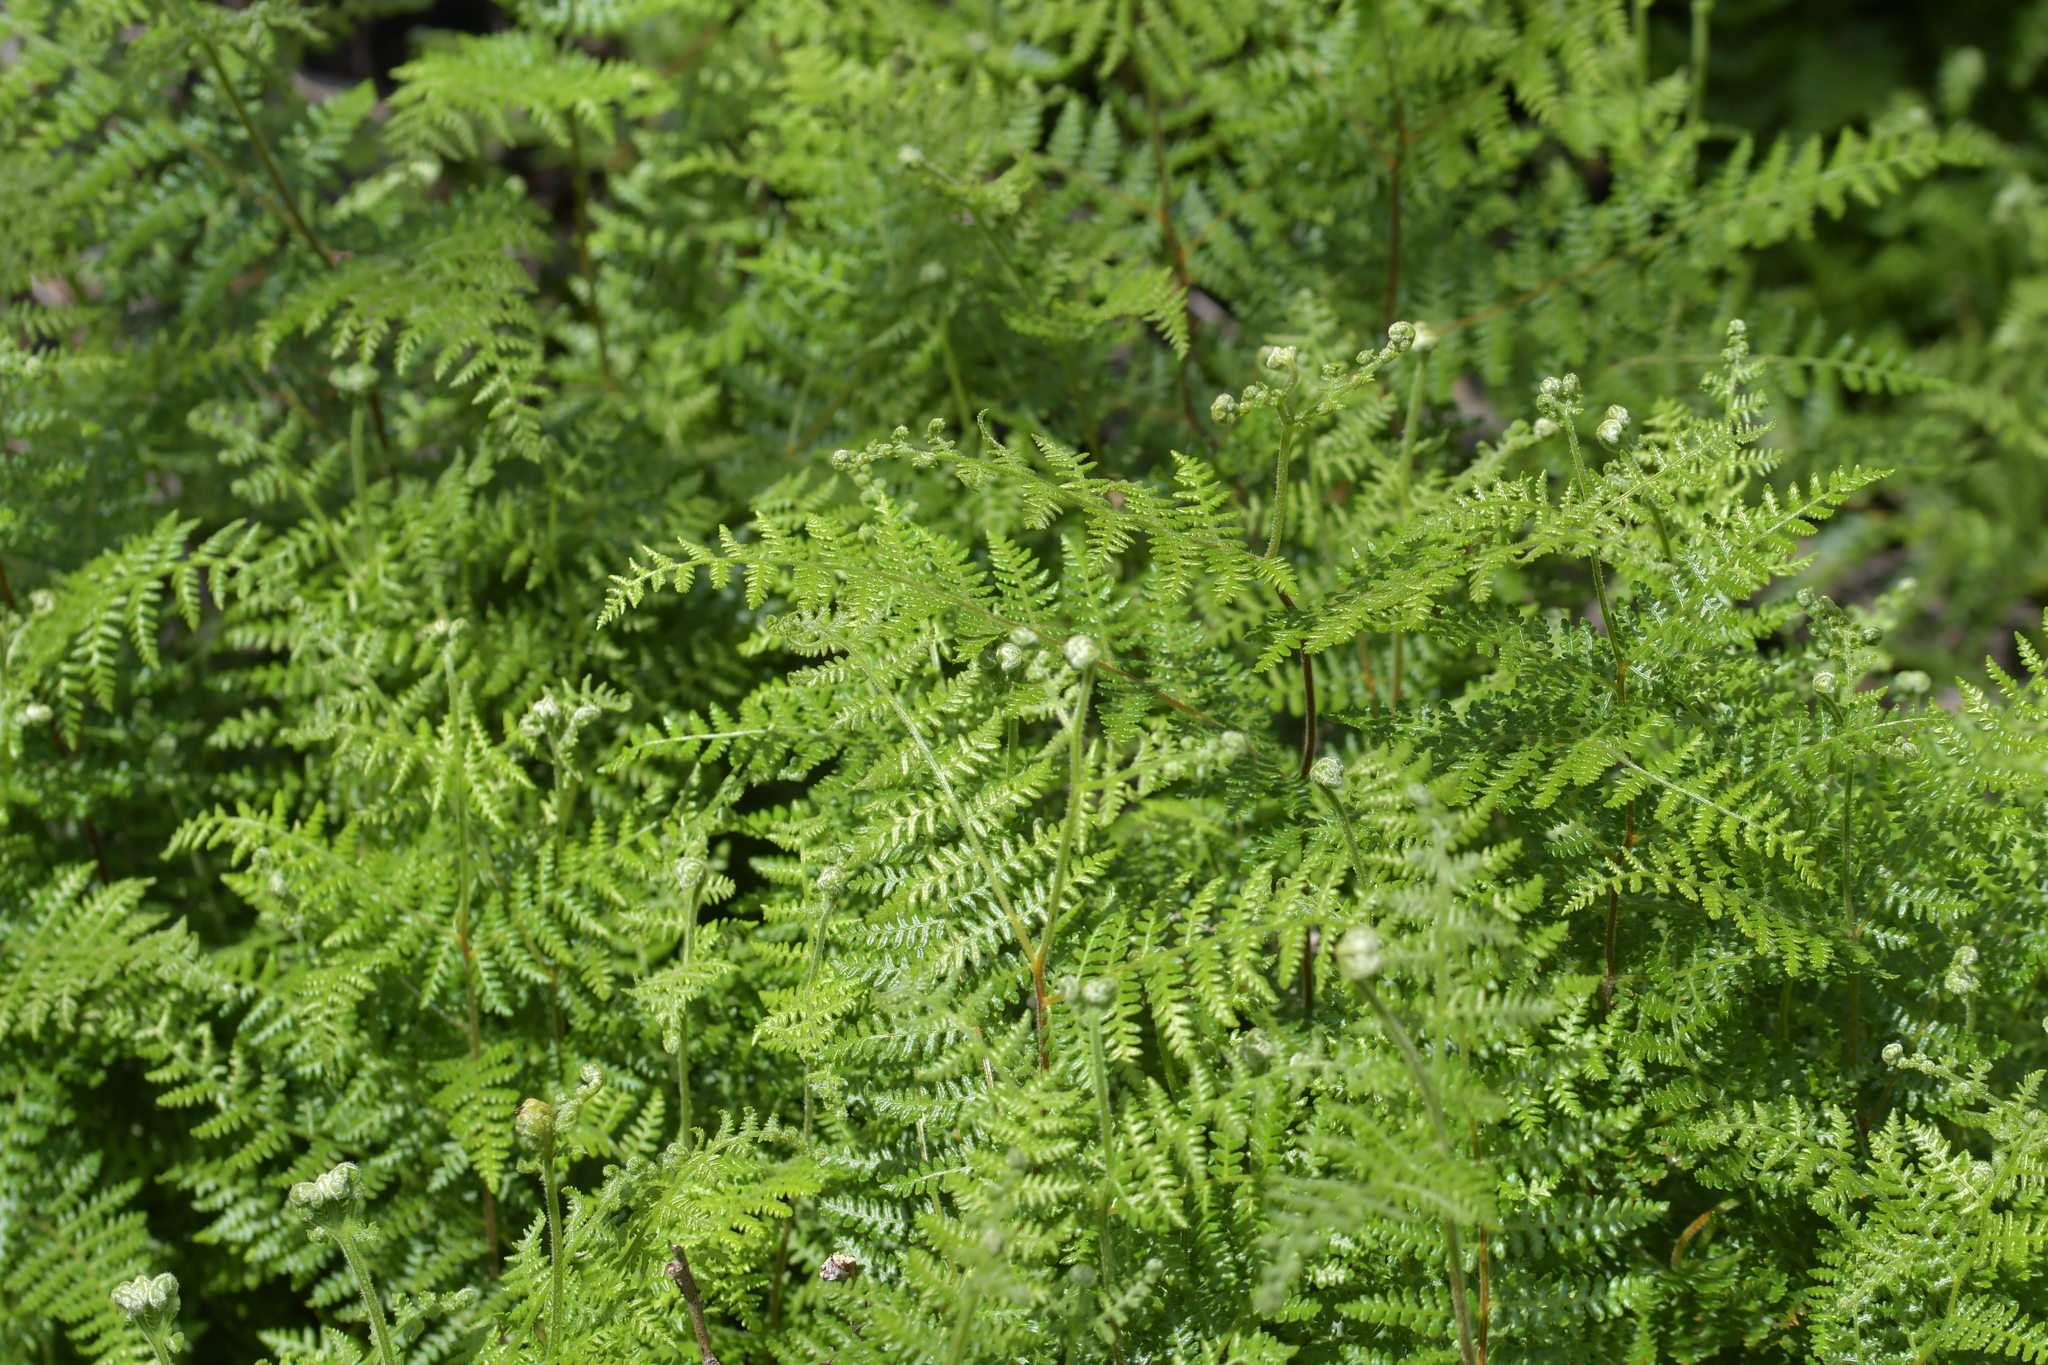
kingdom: Plantae
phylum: Tracheophyta
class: Polypodiopsida
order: Polypodiales
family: Dennstaedtiaceae
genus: Hypolepis
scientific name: Hypolepis ambigua
